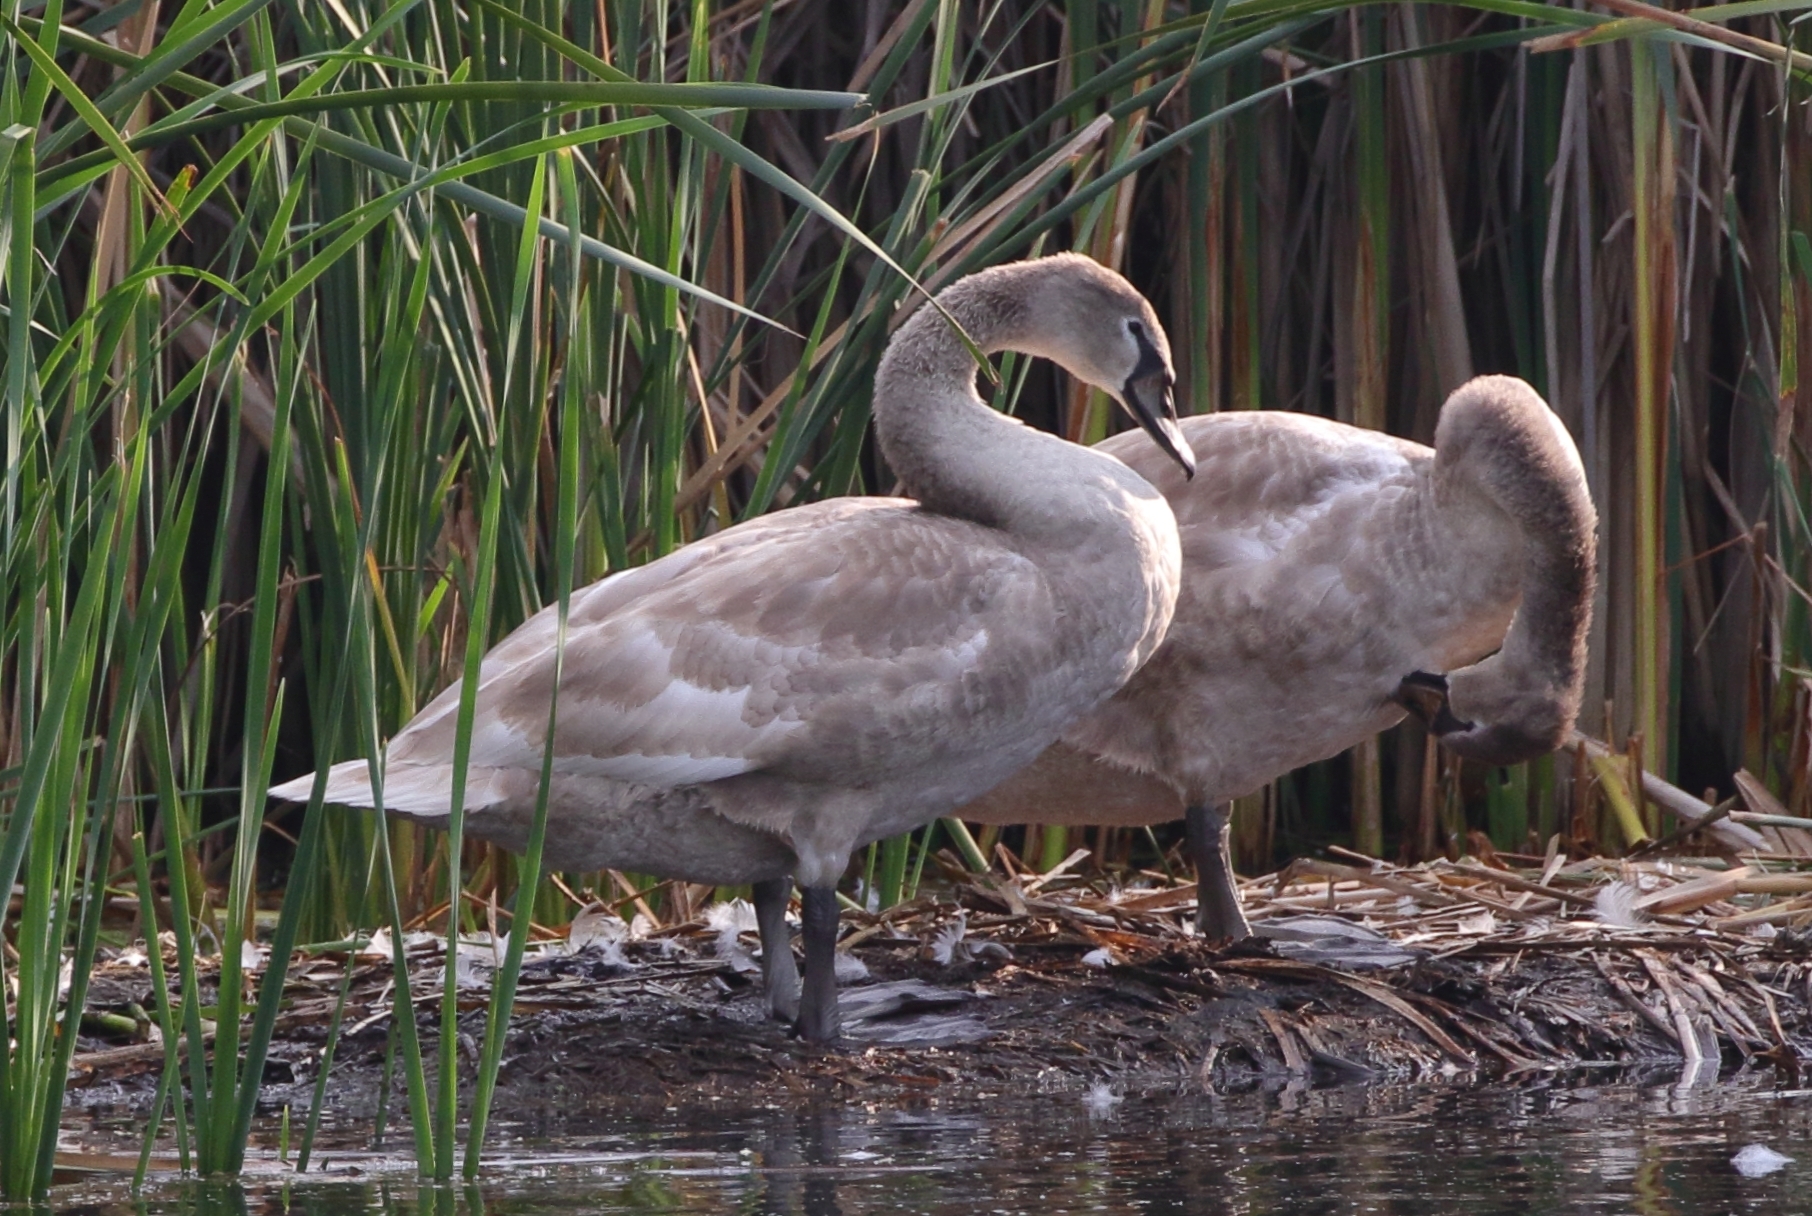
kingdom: Animalia
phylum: Chordata
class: Aves
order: Anseriformes
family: Anatidae
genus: Cygnus
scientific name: Cygnus olor
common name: Mute swan
